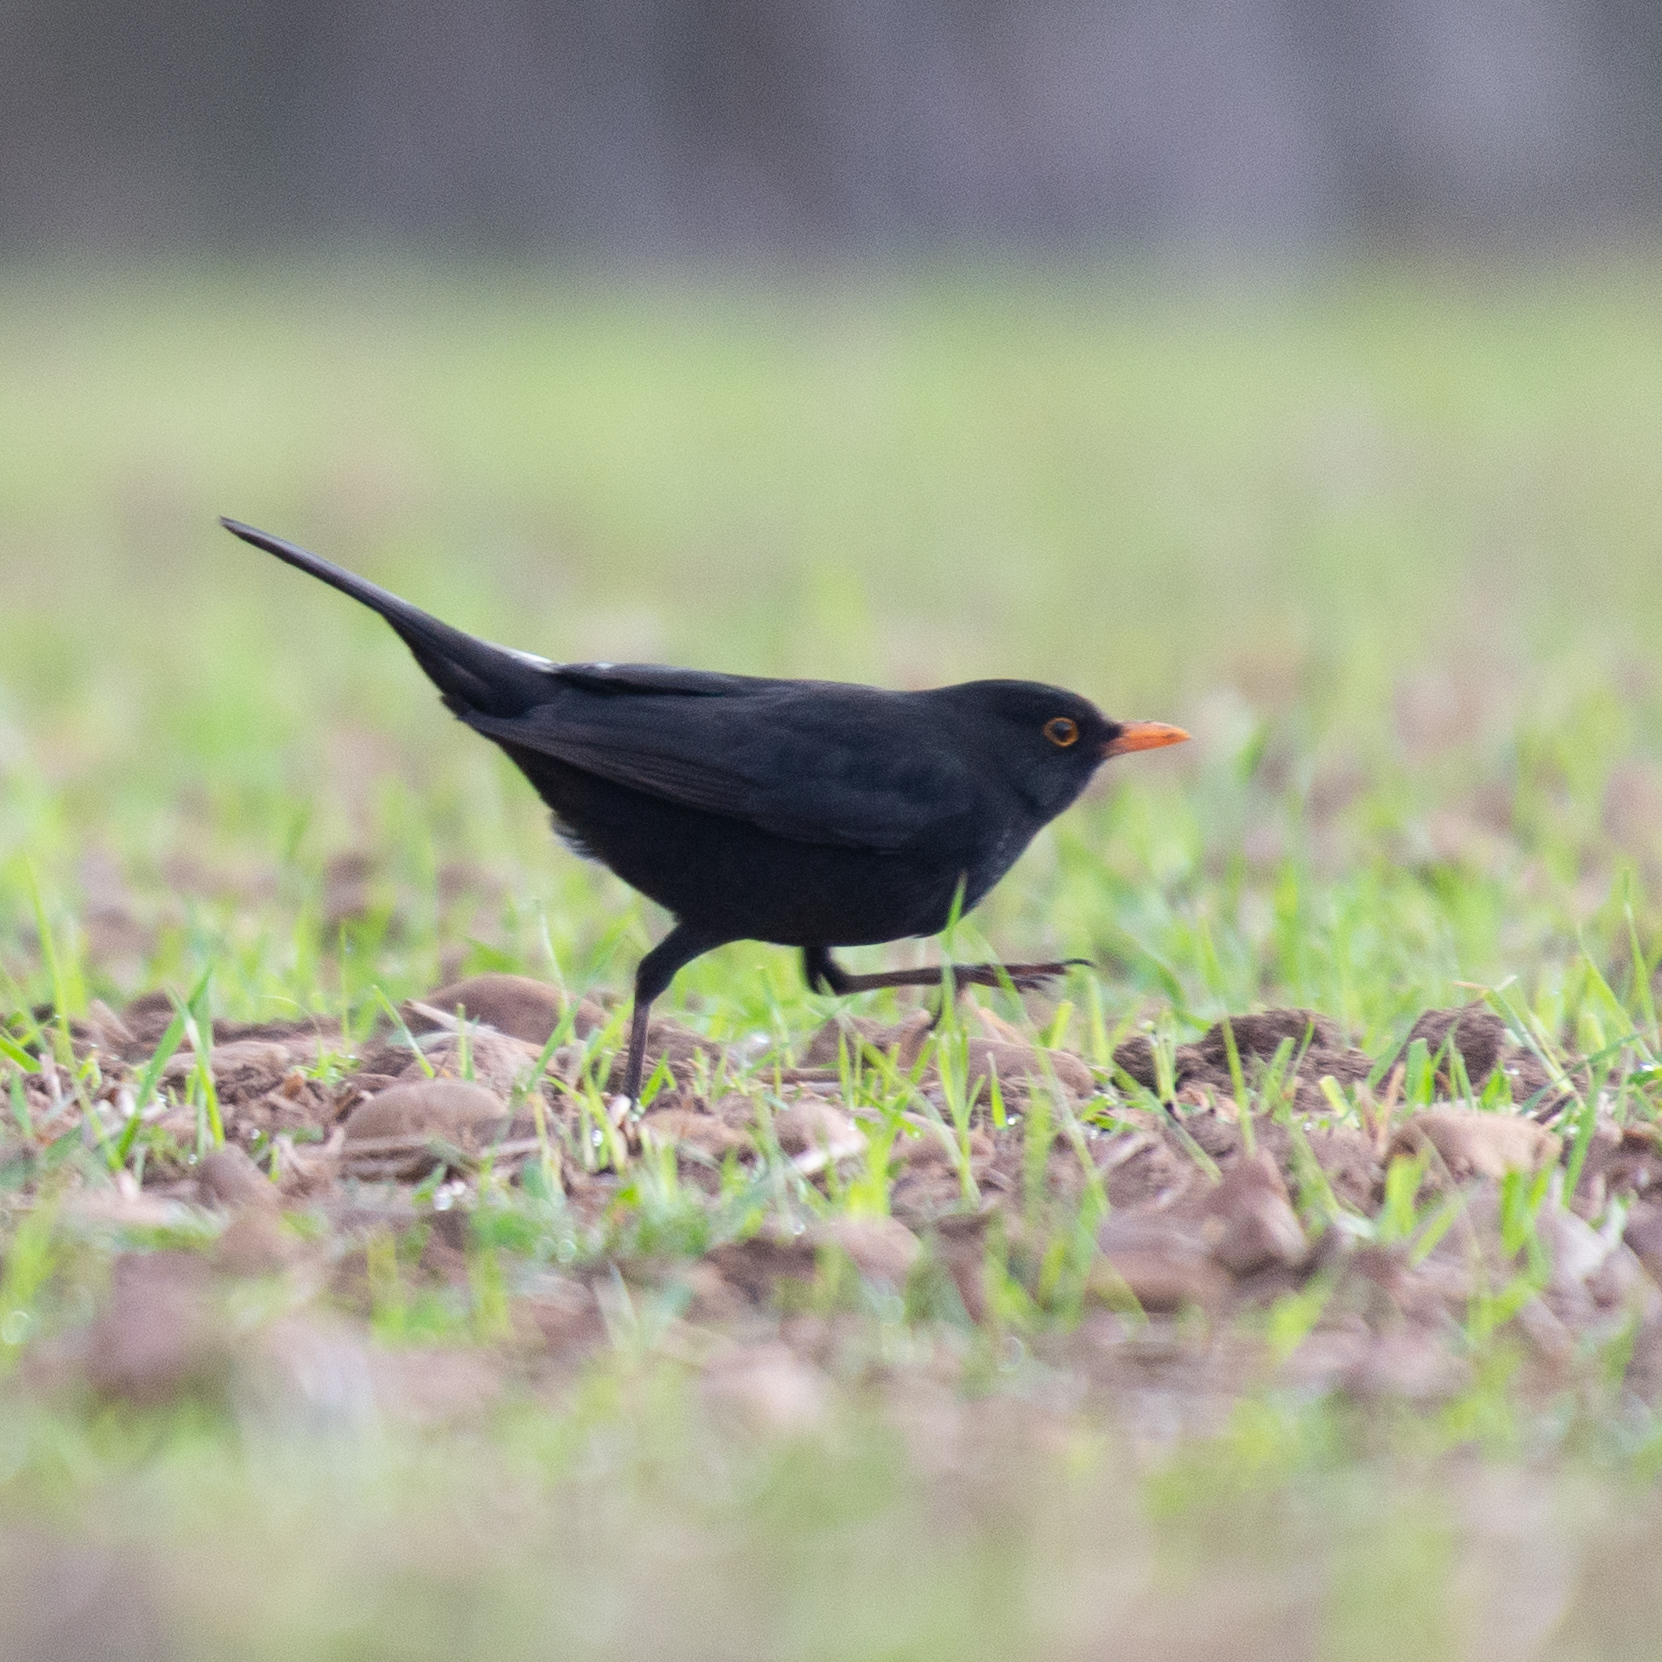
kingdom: Animalia
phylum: Chordata
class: Aves
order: Passeriformes
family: Turdidae
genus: Turdus
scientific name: Turdus merula
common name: Common blackbird
